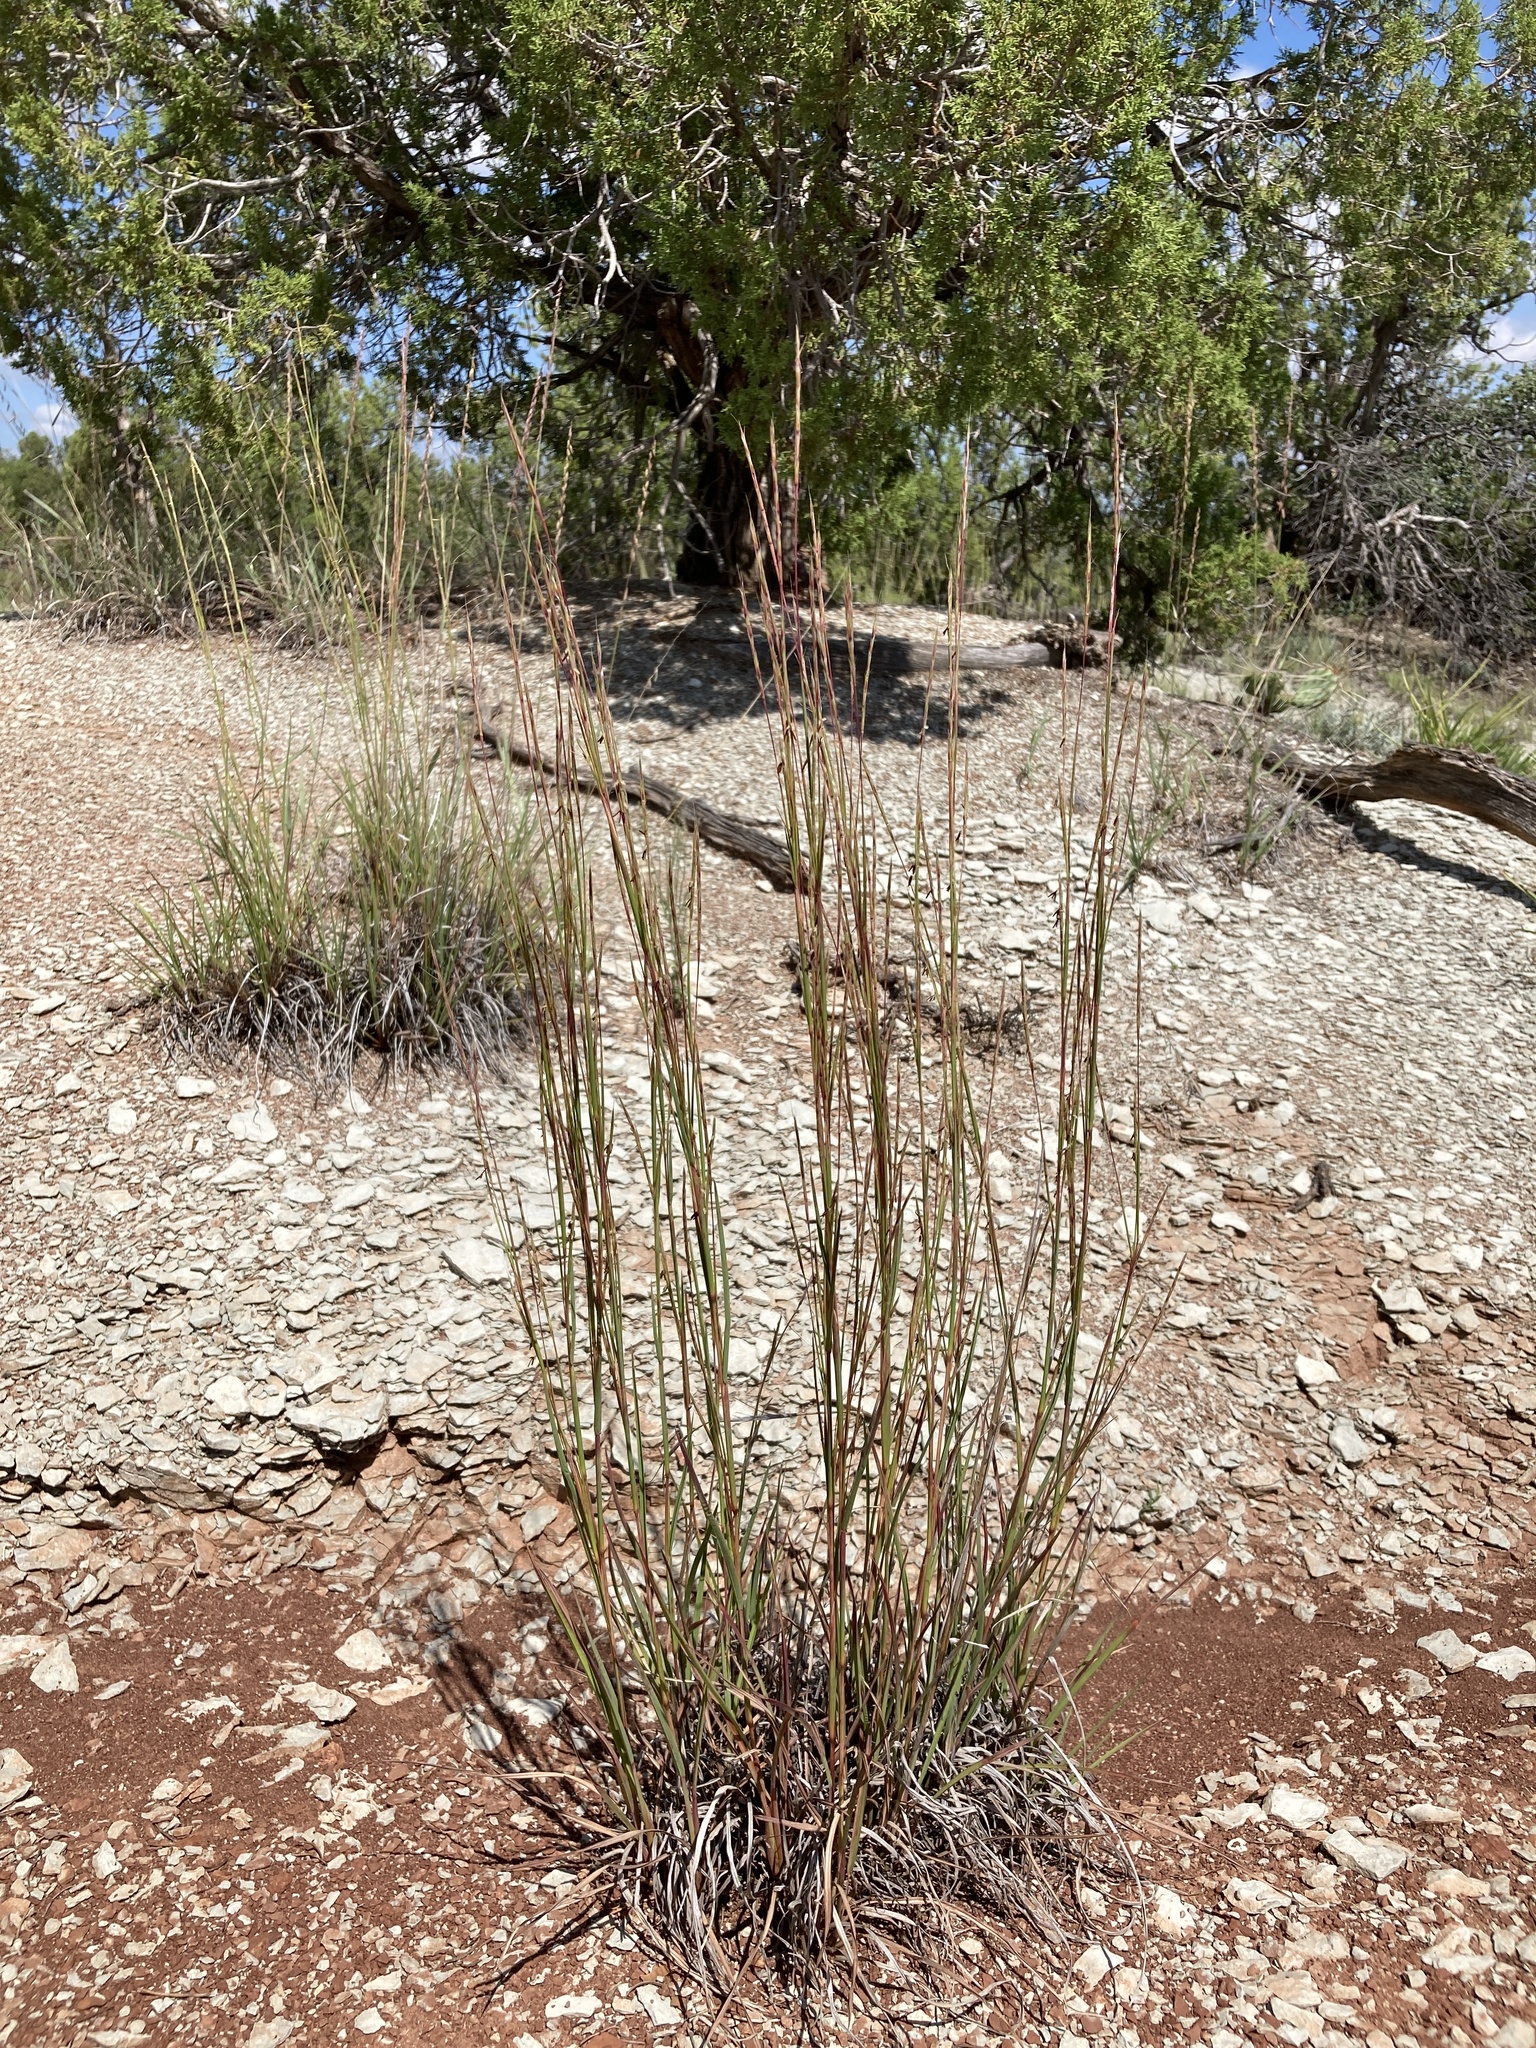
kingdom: Plantae
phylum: Tracheophyta
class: Liliopsida
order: Poales
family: Poaceae
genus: Schizachyrium
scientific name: Schizachyrium scoparium
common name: Little bluestem
